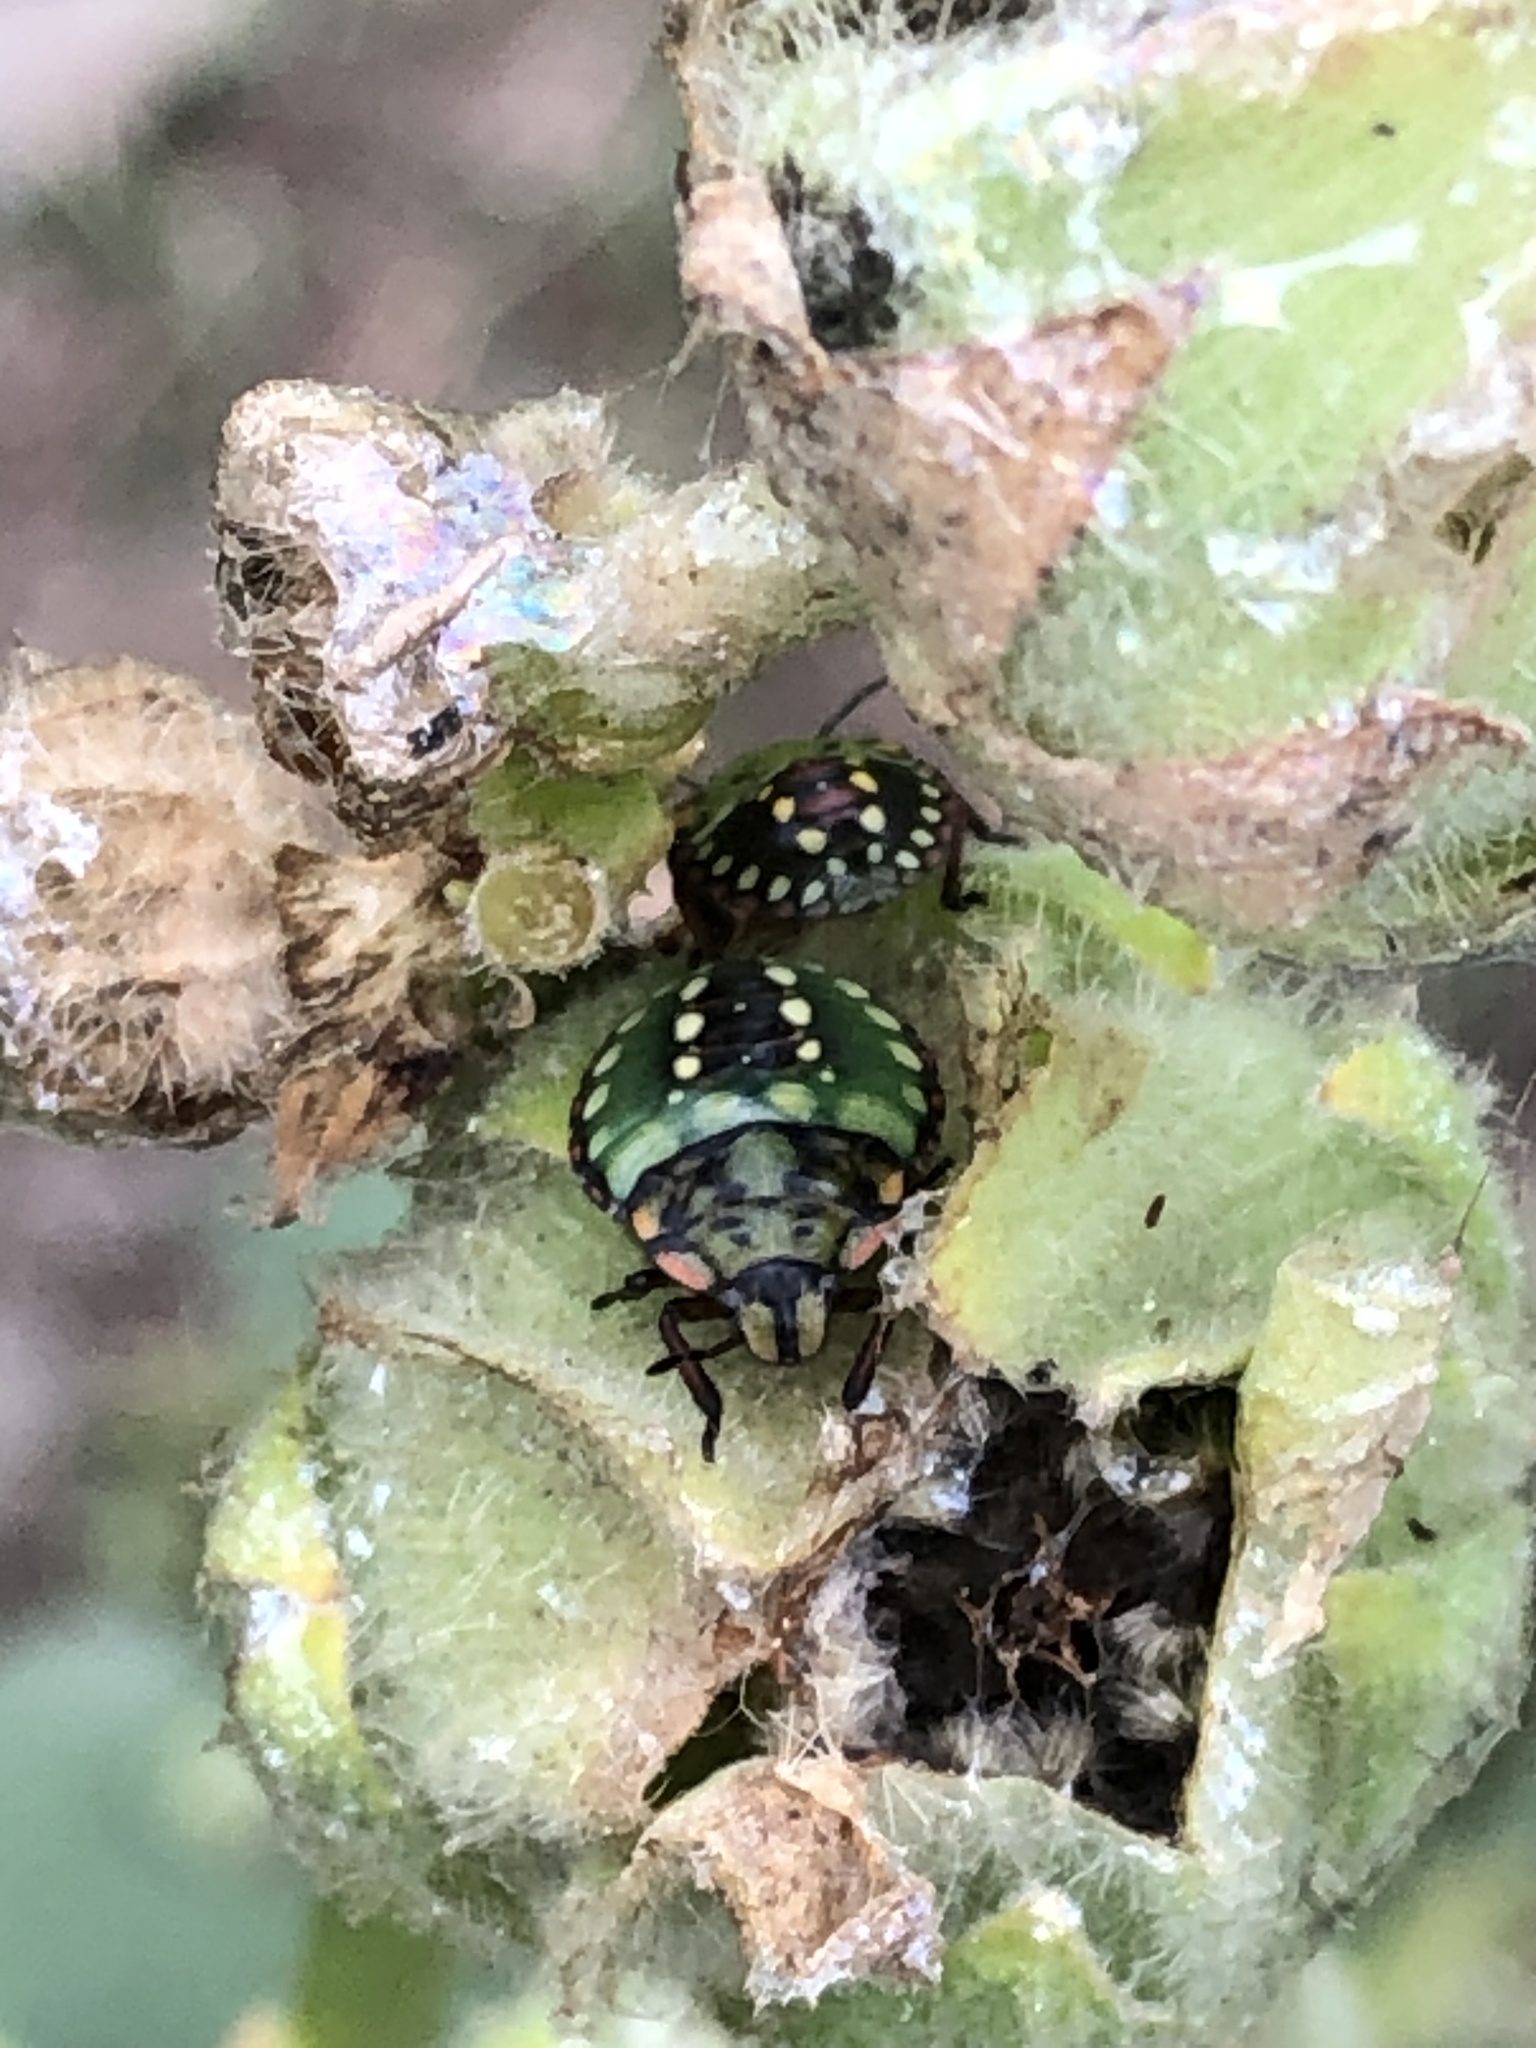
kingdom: Animalia
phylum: Arthropoda
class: Insecta
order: Hemiptera
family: Pentatomidae
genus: Nezara
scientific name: Nezara viridula
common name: Southern green stink bug
